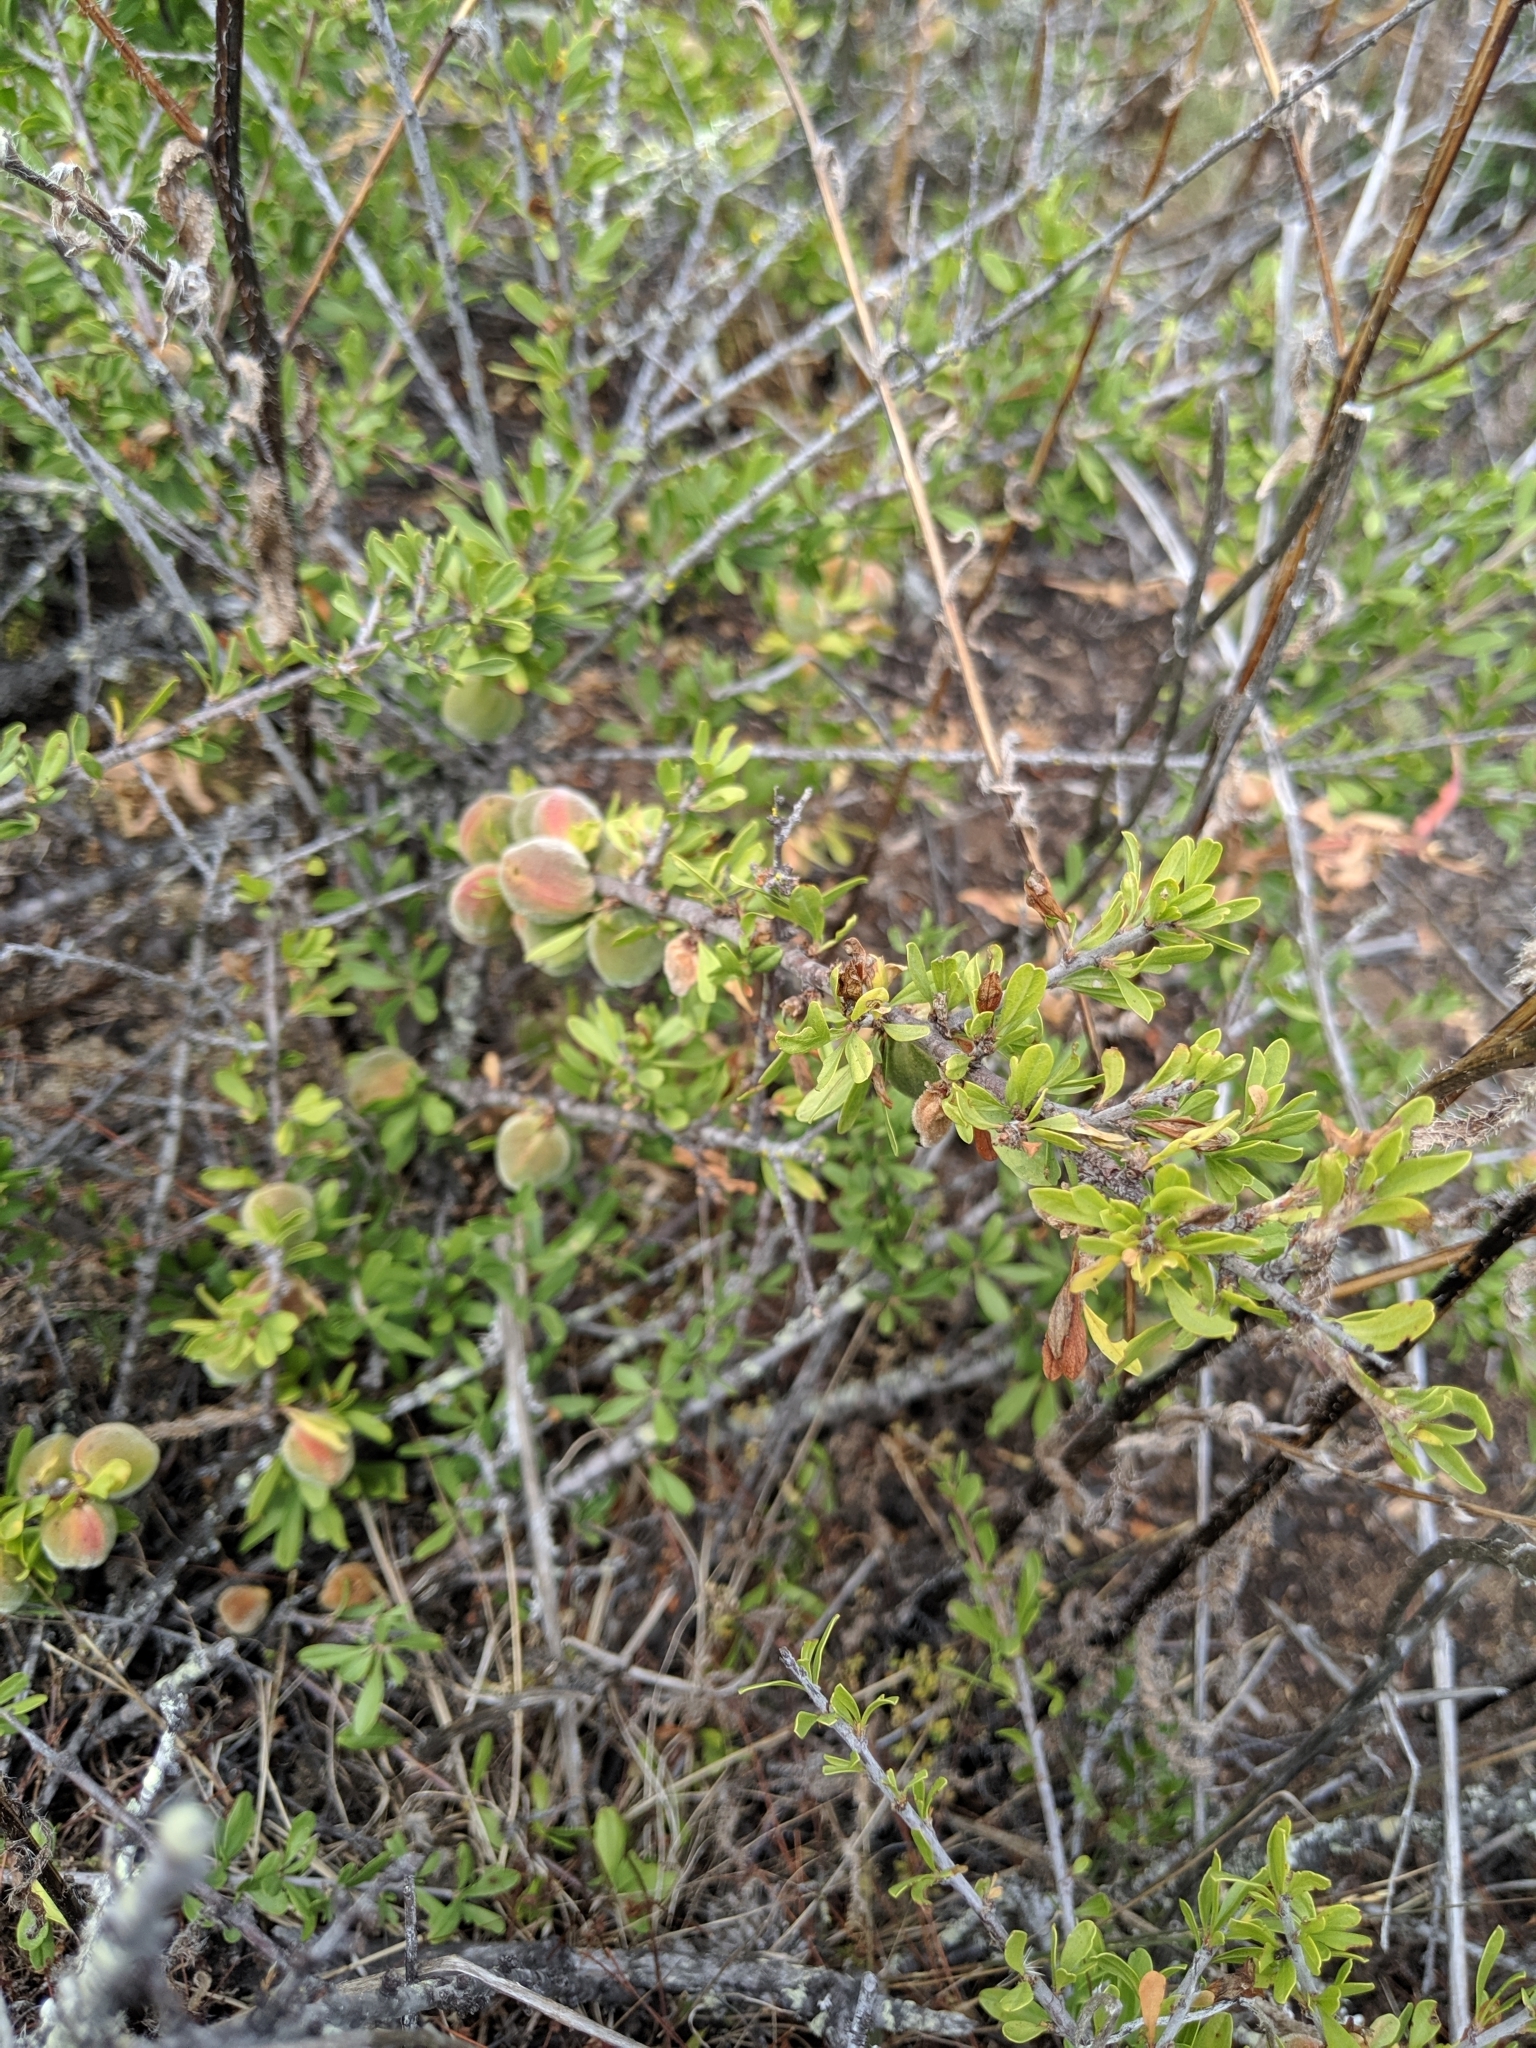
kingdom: Plantae
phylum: Tracheophyta
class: Magnoliopsida
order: Rosales
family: Rosaceae
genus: Prunus
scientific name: Prunus fasciculata
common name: Desert almond
